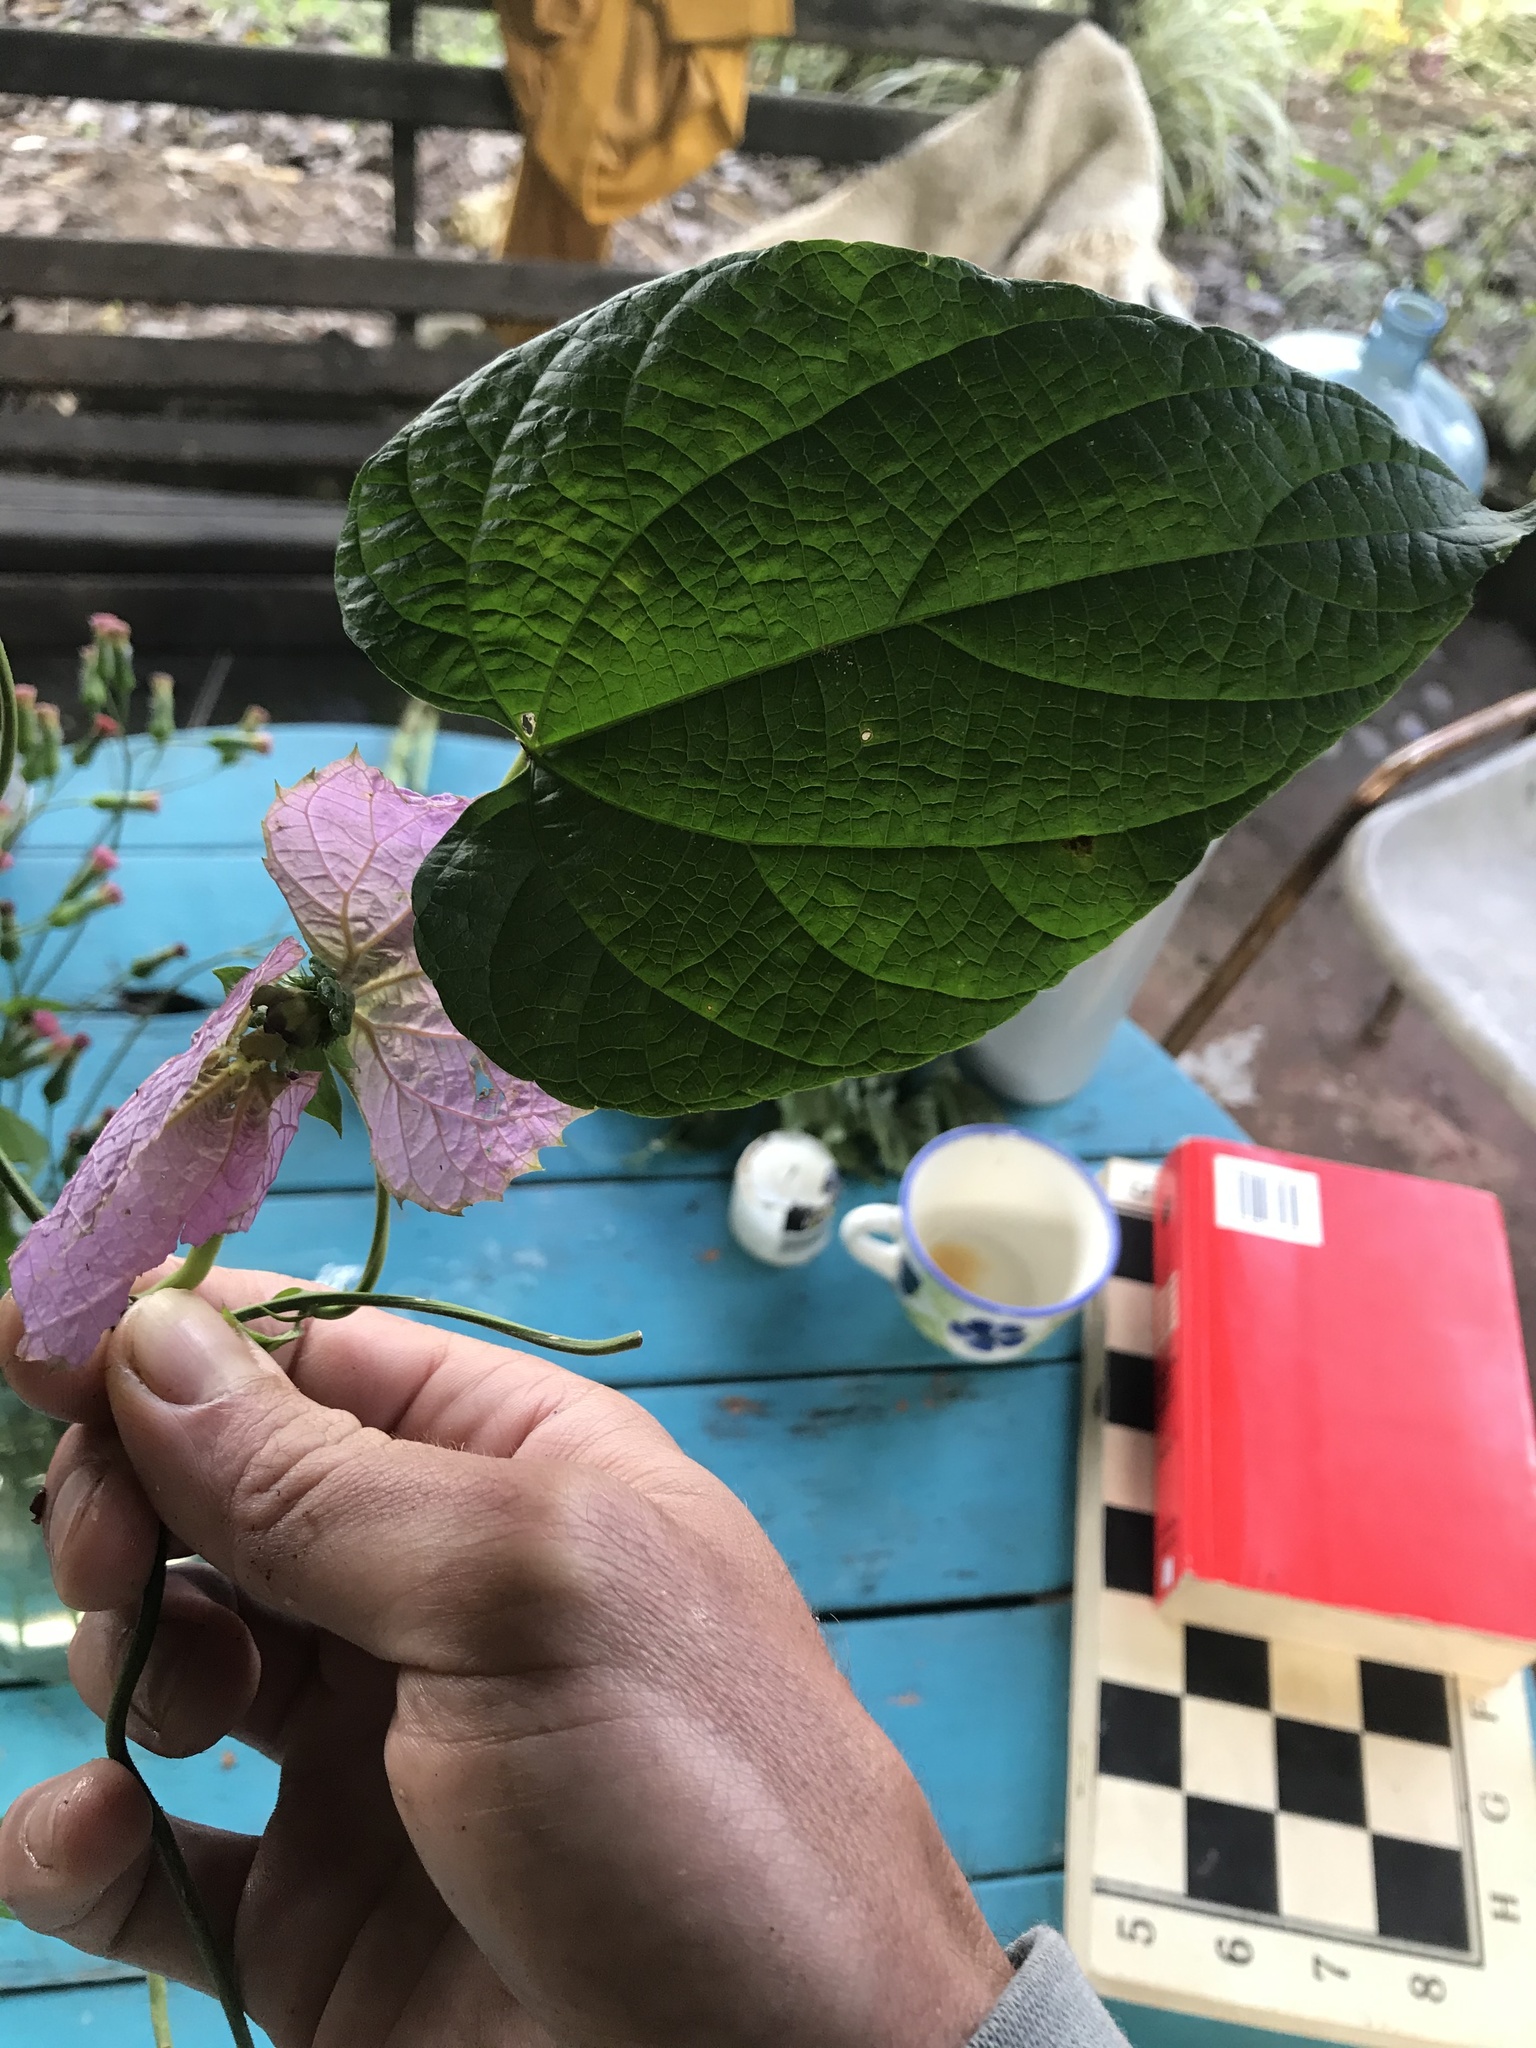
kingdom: Plantae
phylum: Tracheophyta
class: Magnoliopsida
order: Malpighiales
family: Euphorbiaceae
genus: Dalechampia
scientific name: Dalechampia dioscoreifolia
